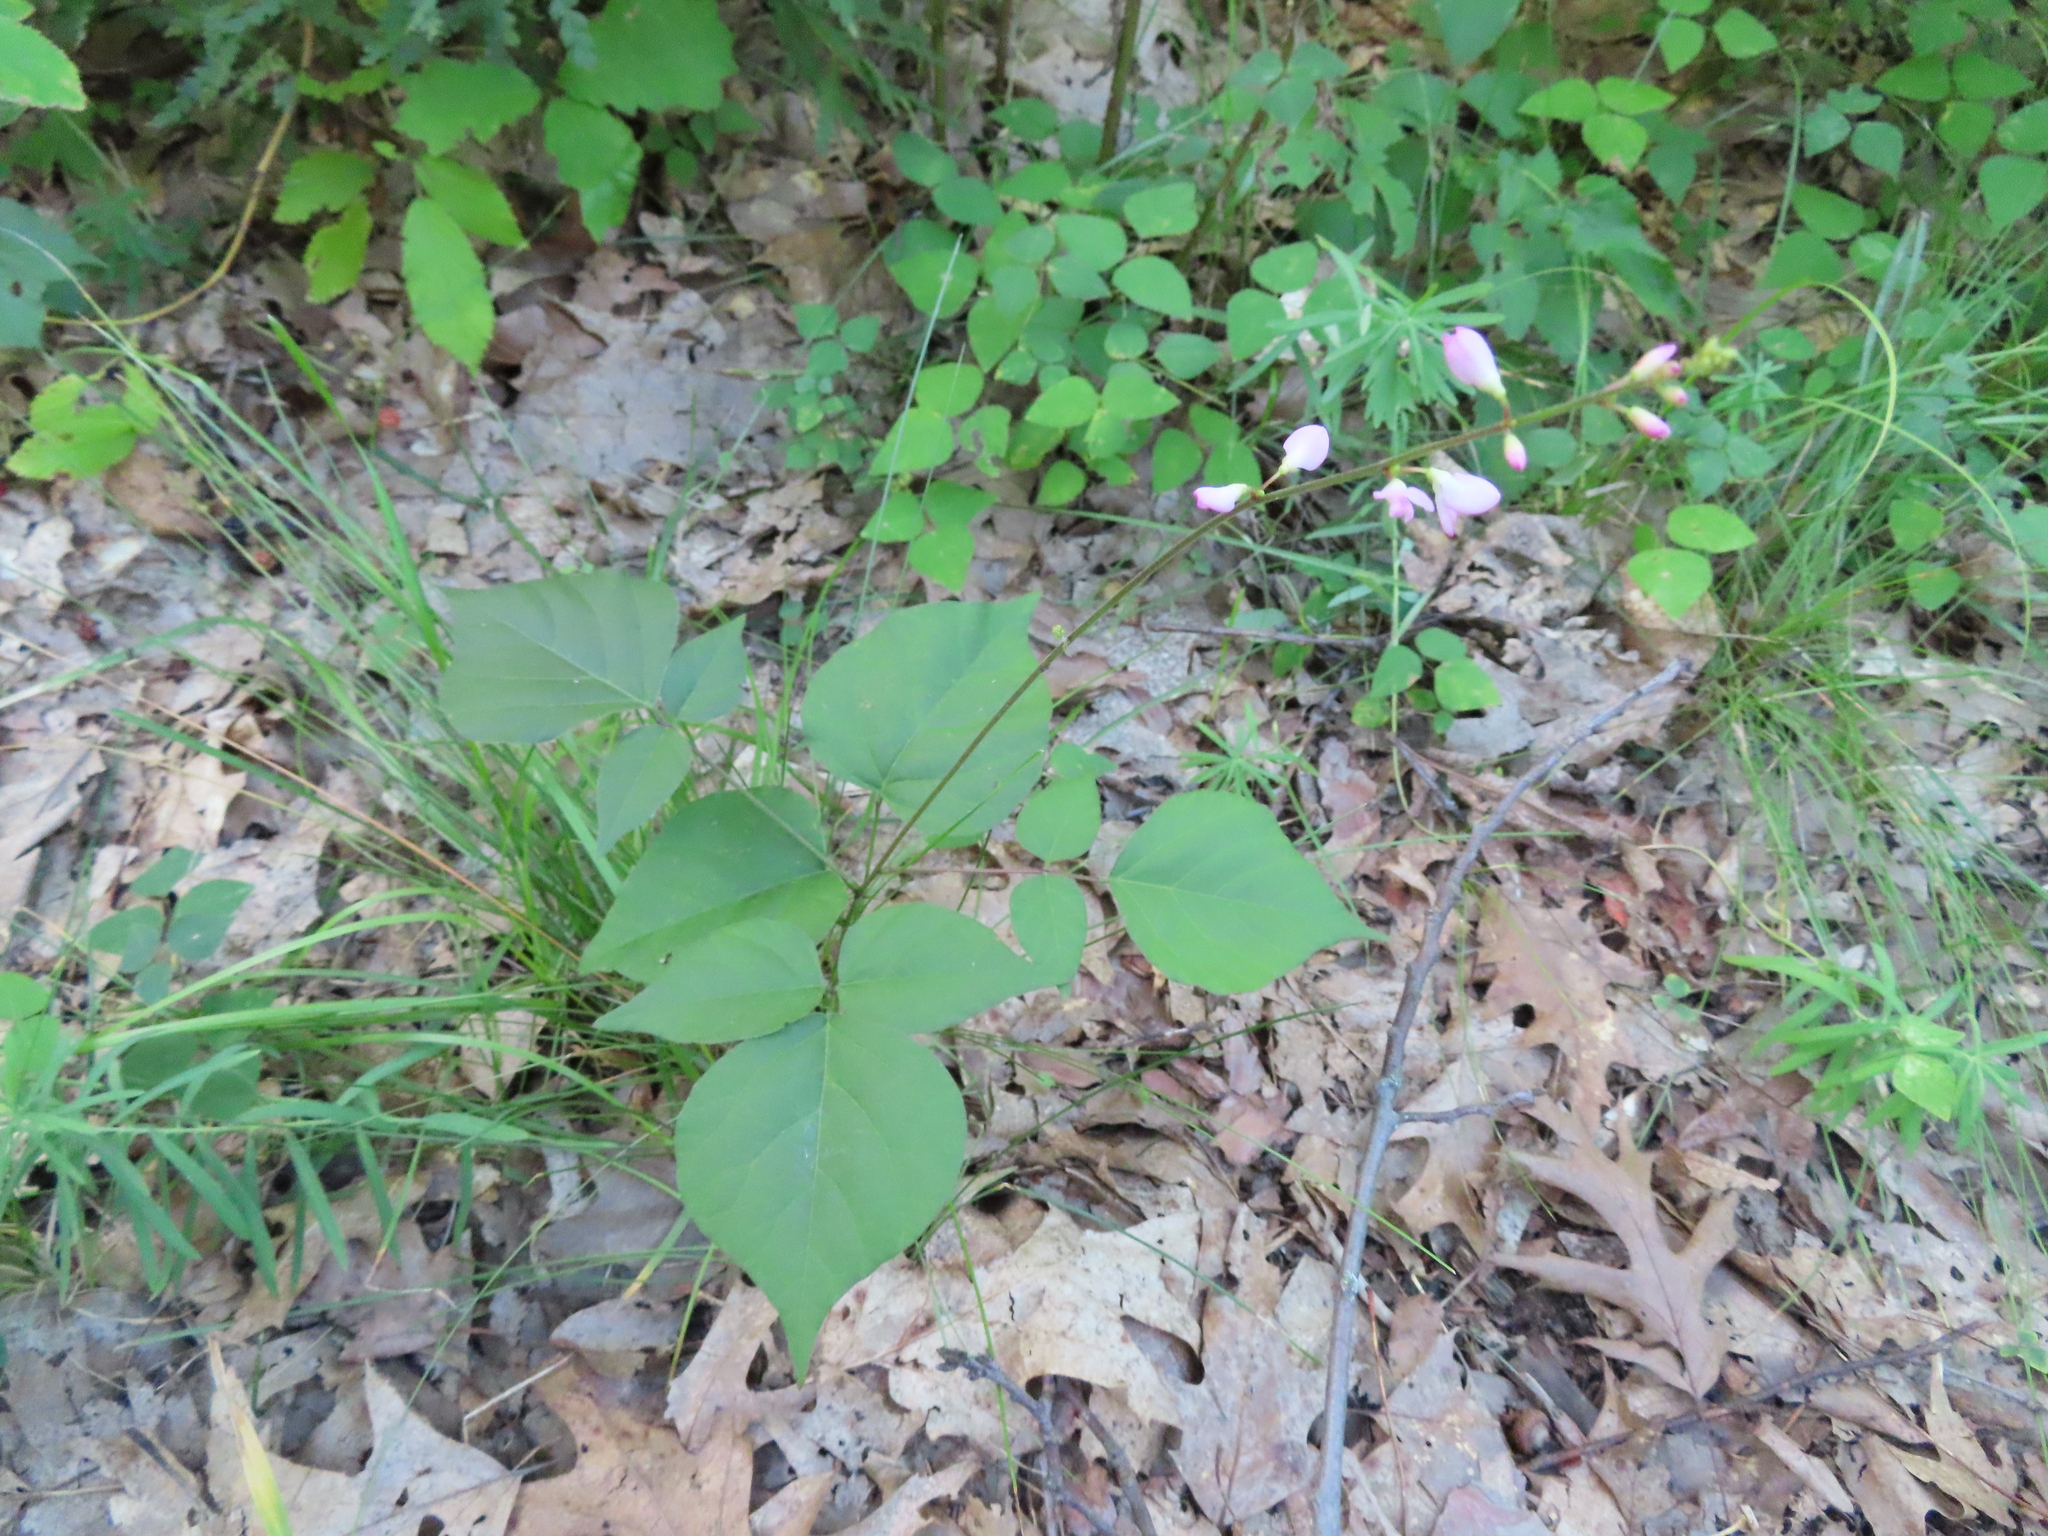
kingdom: Plantae
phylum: Tracheophyta
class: Magnoliopsida
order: Fabales
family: Fabaceae
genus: Hylodesmum
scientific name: Hylodesmum glutinosum
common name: Clustered-leaved tick-trefoil
